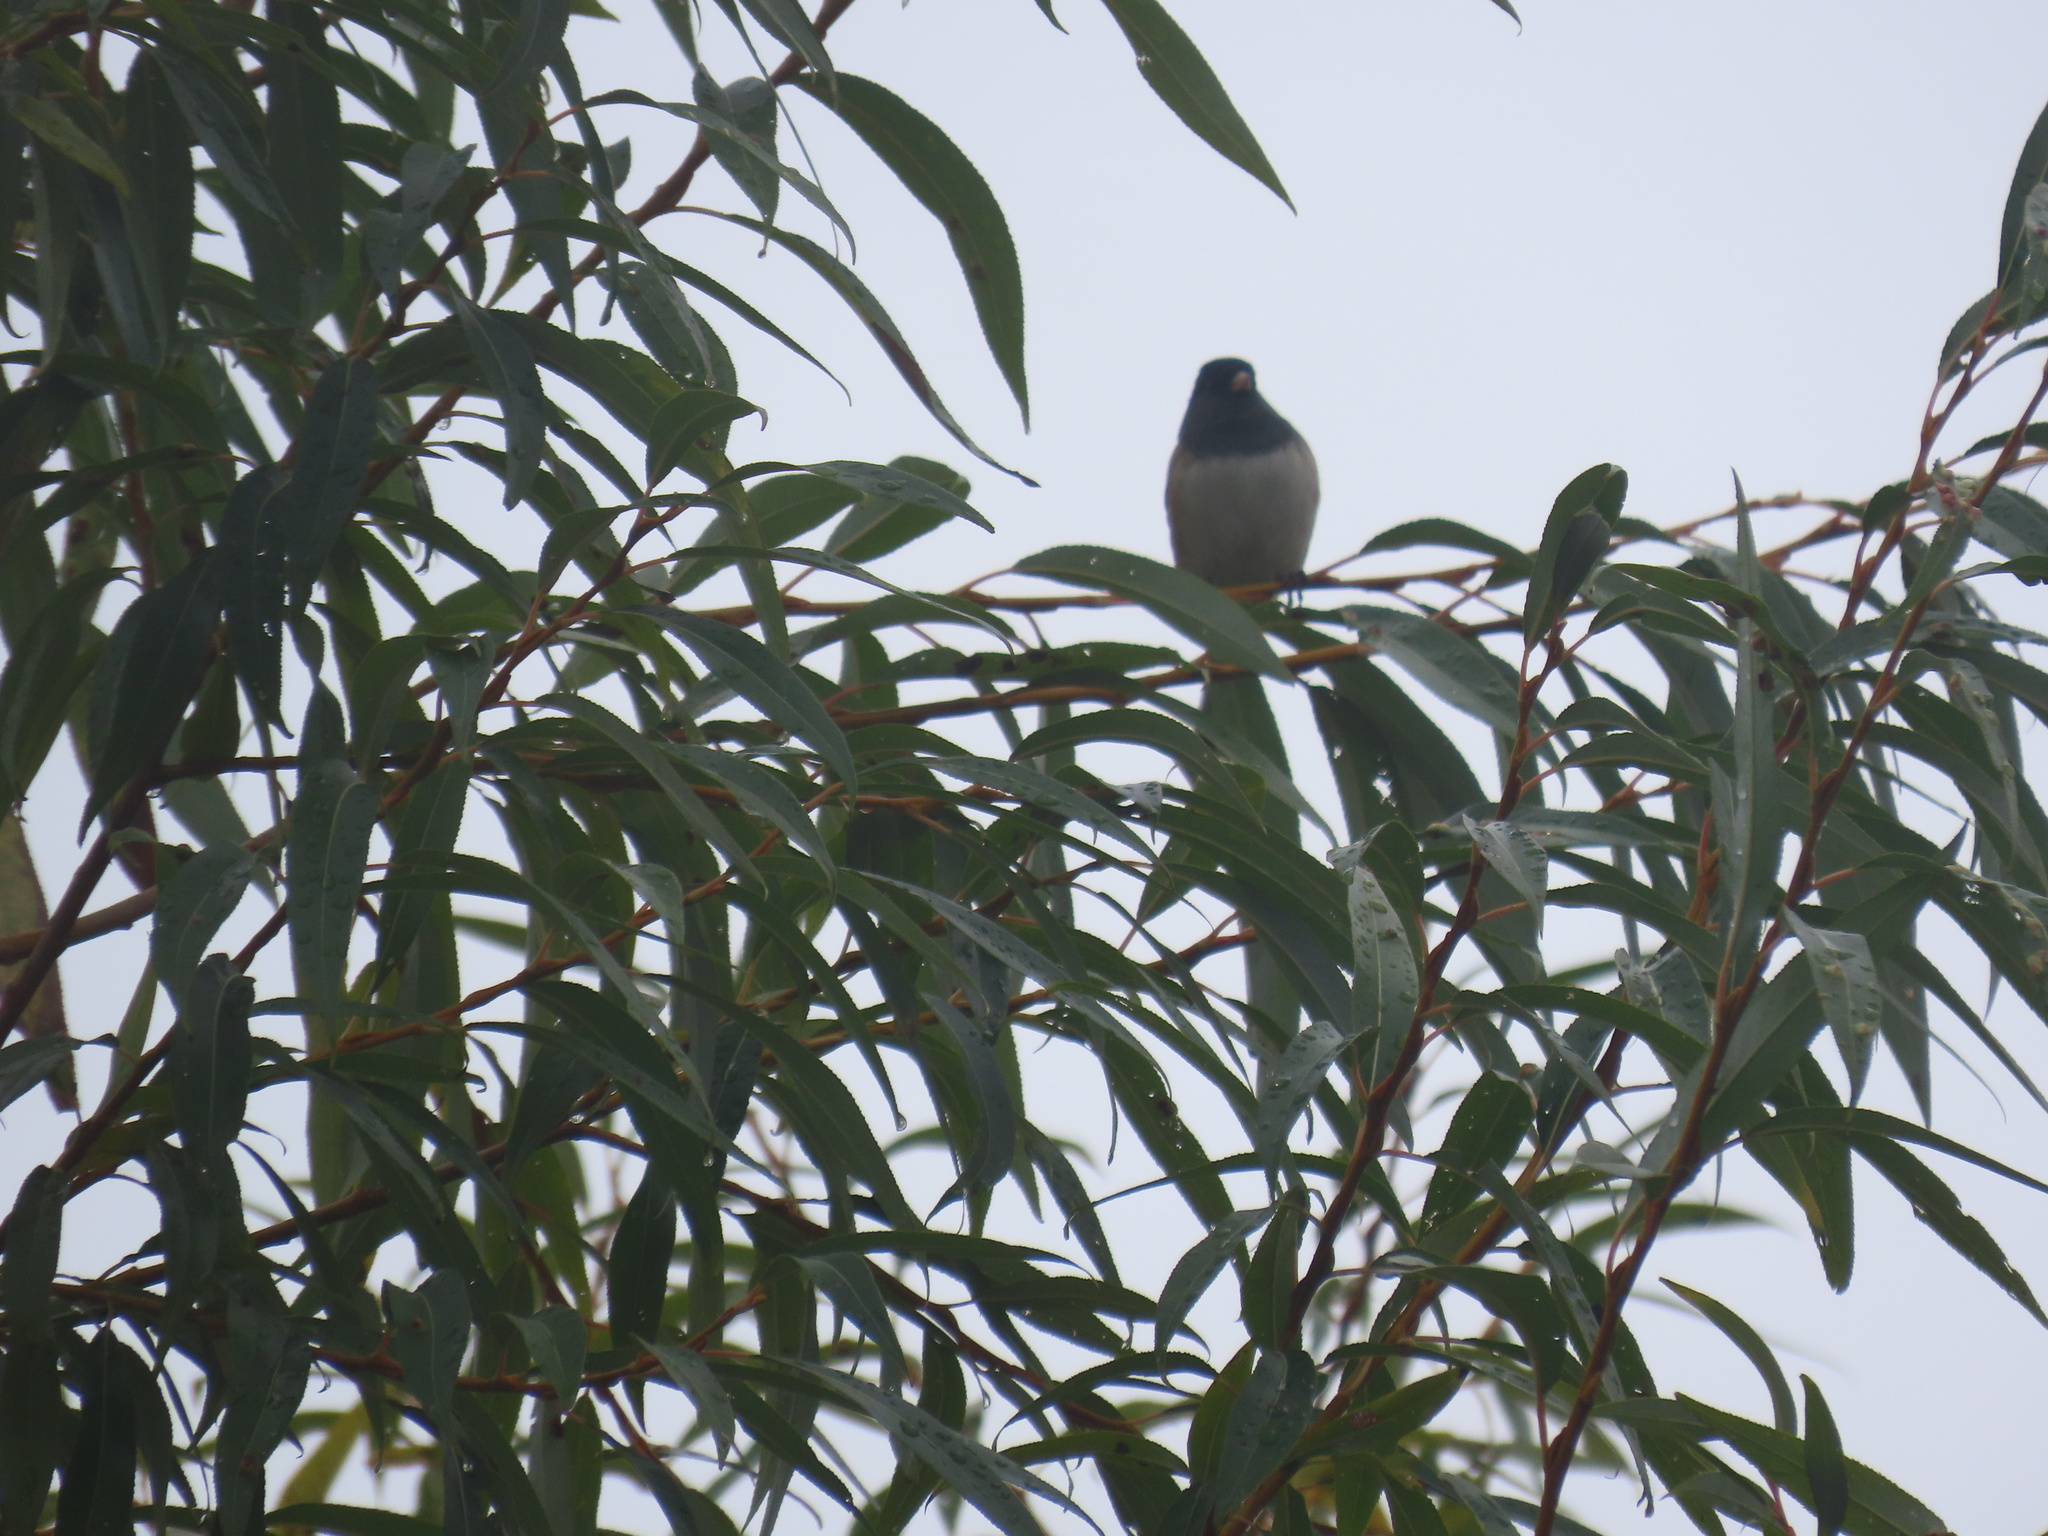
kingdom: Animalia
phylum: Chordata
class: Aves
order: Passeriformes
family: Passerellidae
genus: Junco
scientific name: Junco hyemalis
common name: Dark-eyed junco
